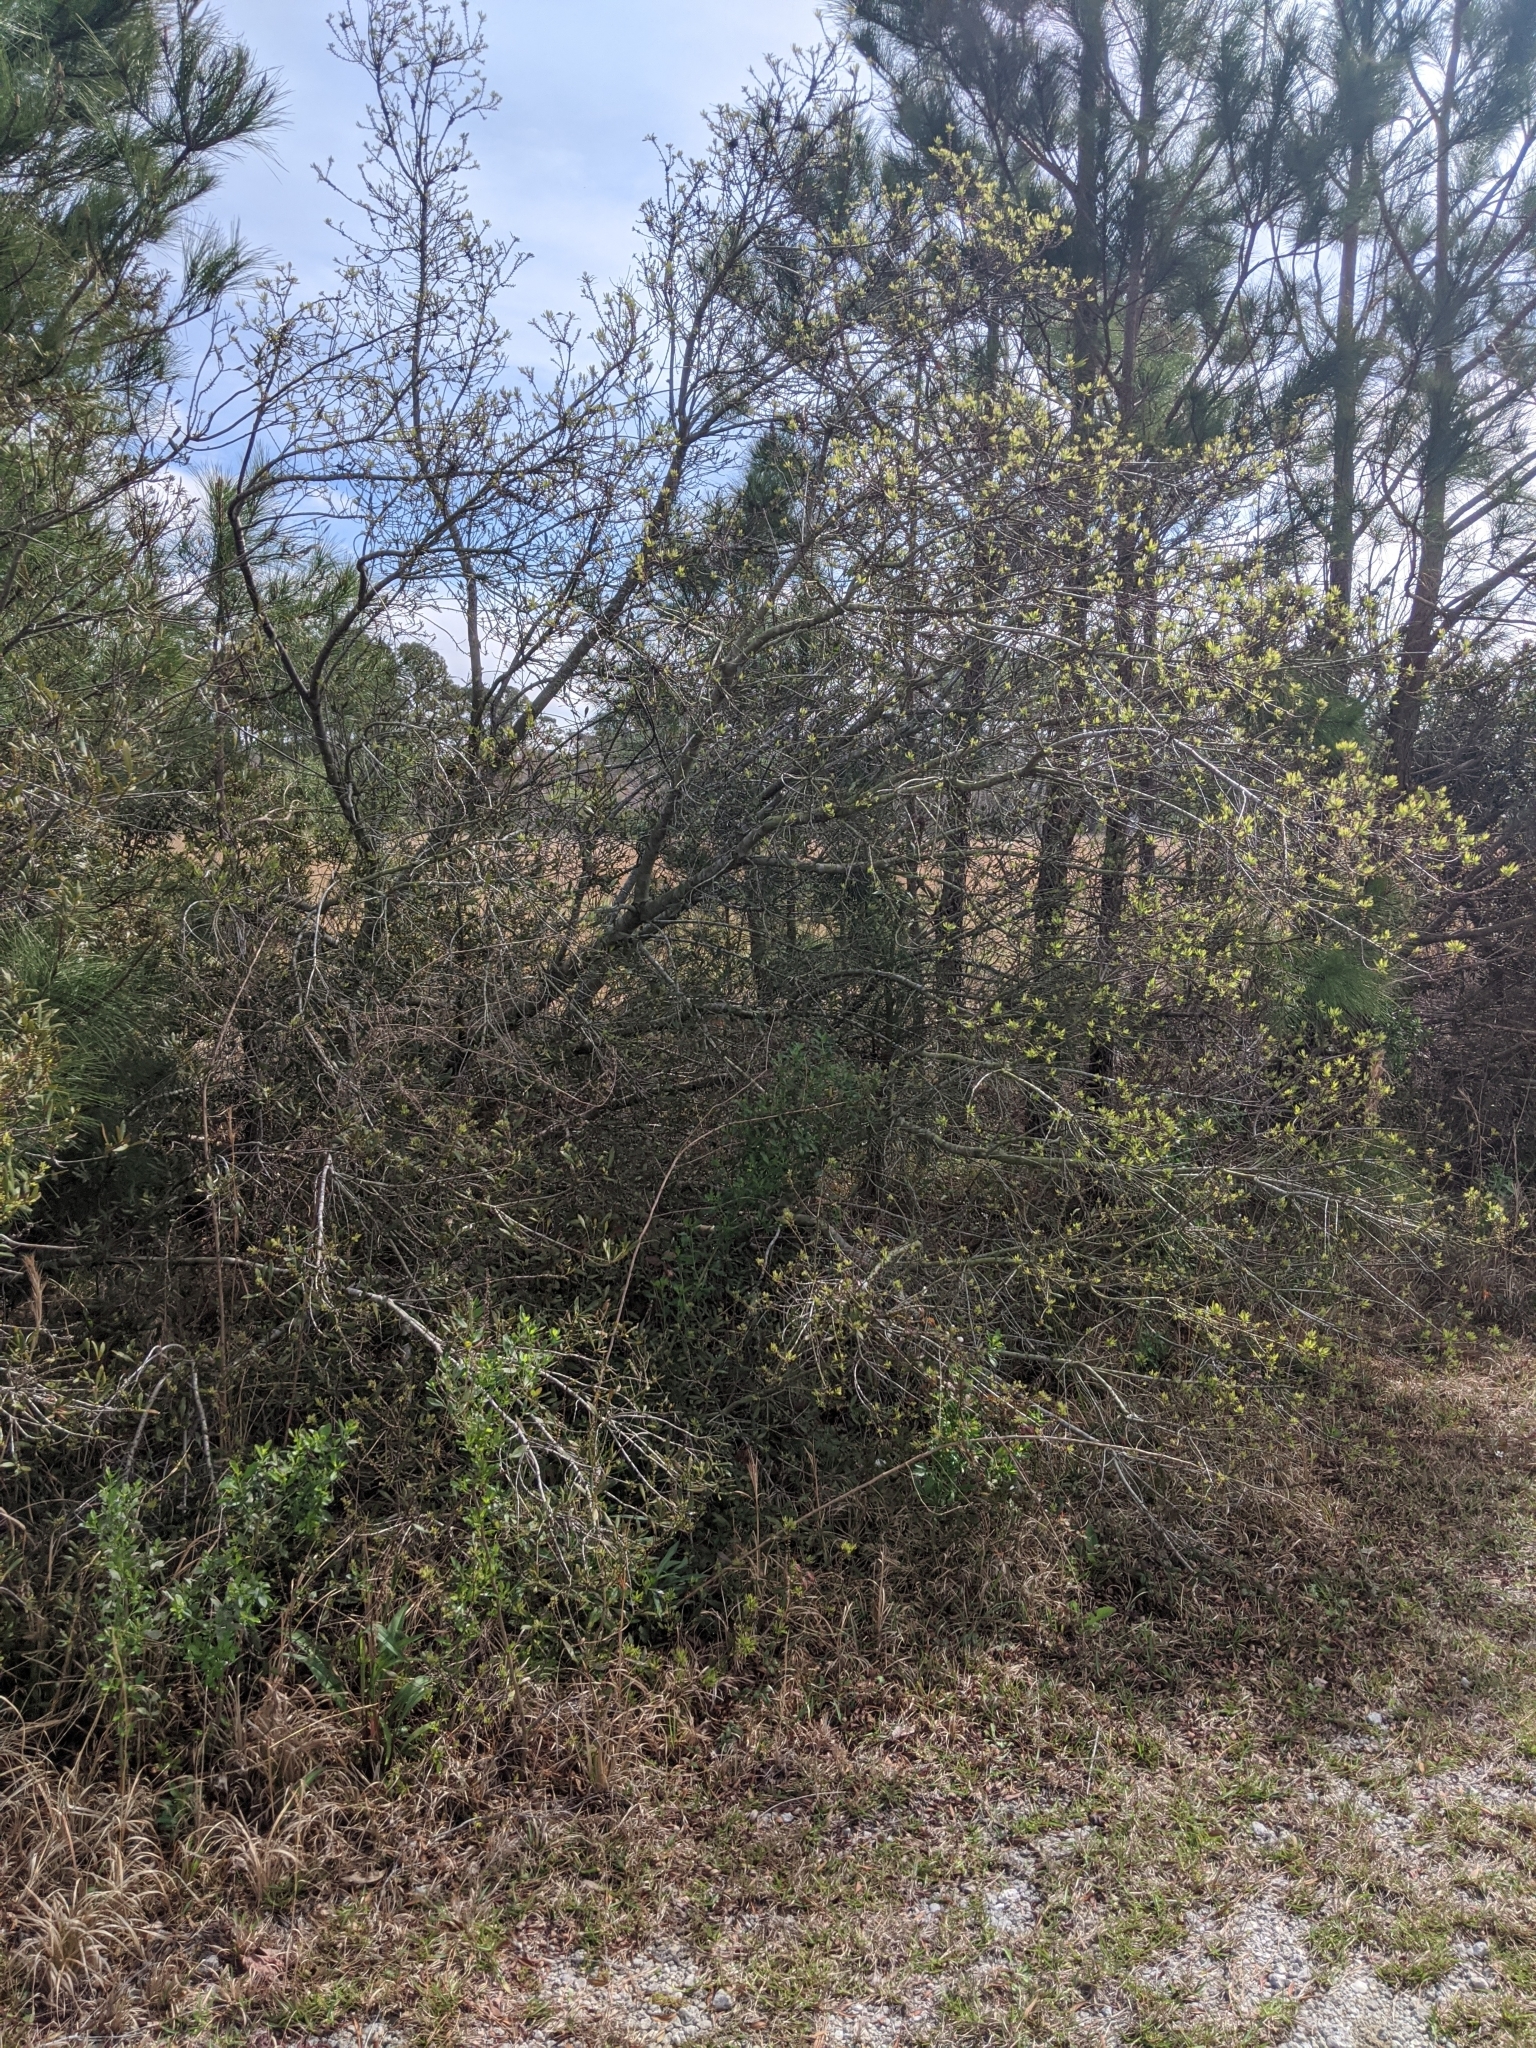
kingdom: Plantae
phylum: Tracheophyta
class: Magnoliopsida
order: Fagales
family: Myricaceae
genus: Morella
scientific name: Morella cerifera
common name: Wax myrtle
